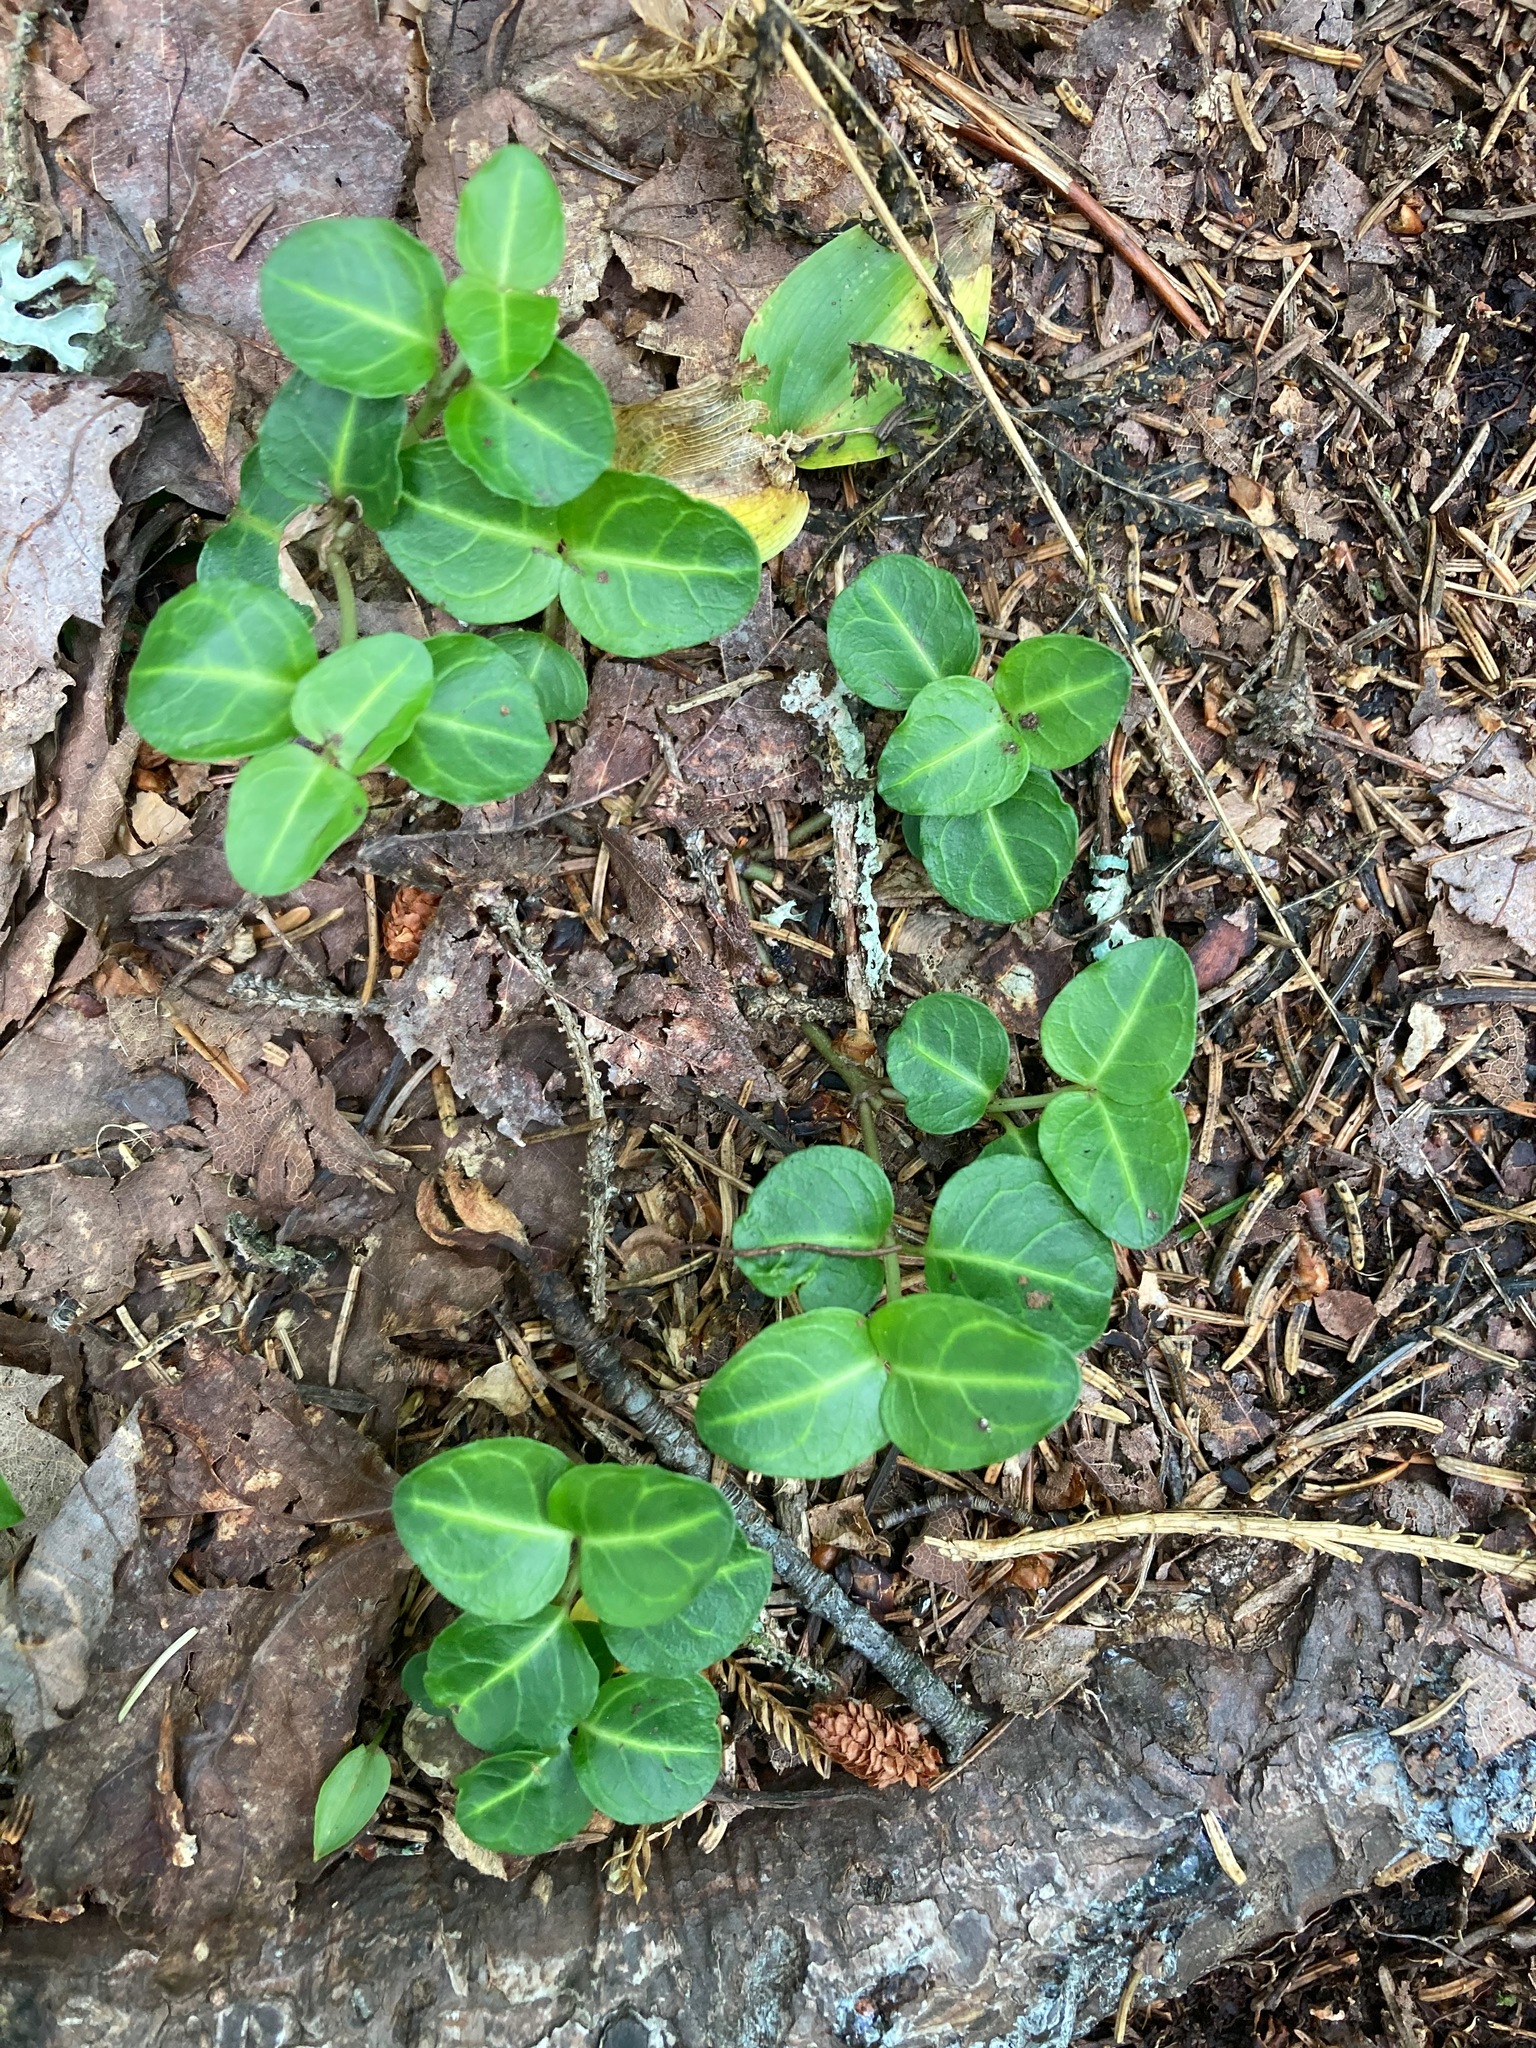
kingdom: Plantae
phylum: Tracheophyta
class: Magnoliopsida
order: Gentianales
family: Rubiaceae
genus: Mitchella
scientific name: Mitchella repens
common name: Partridge-berry
